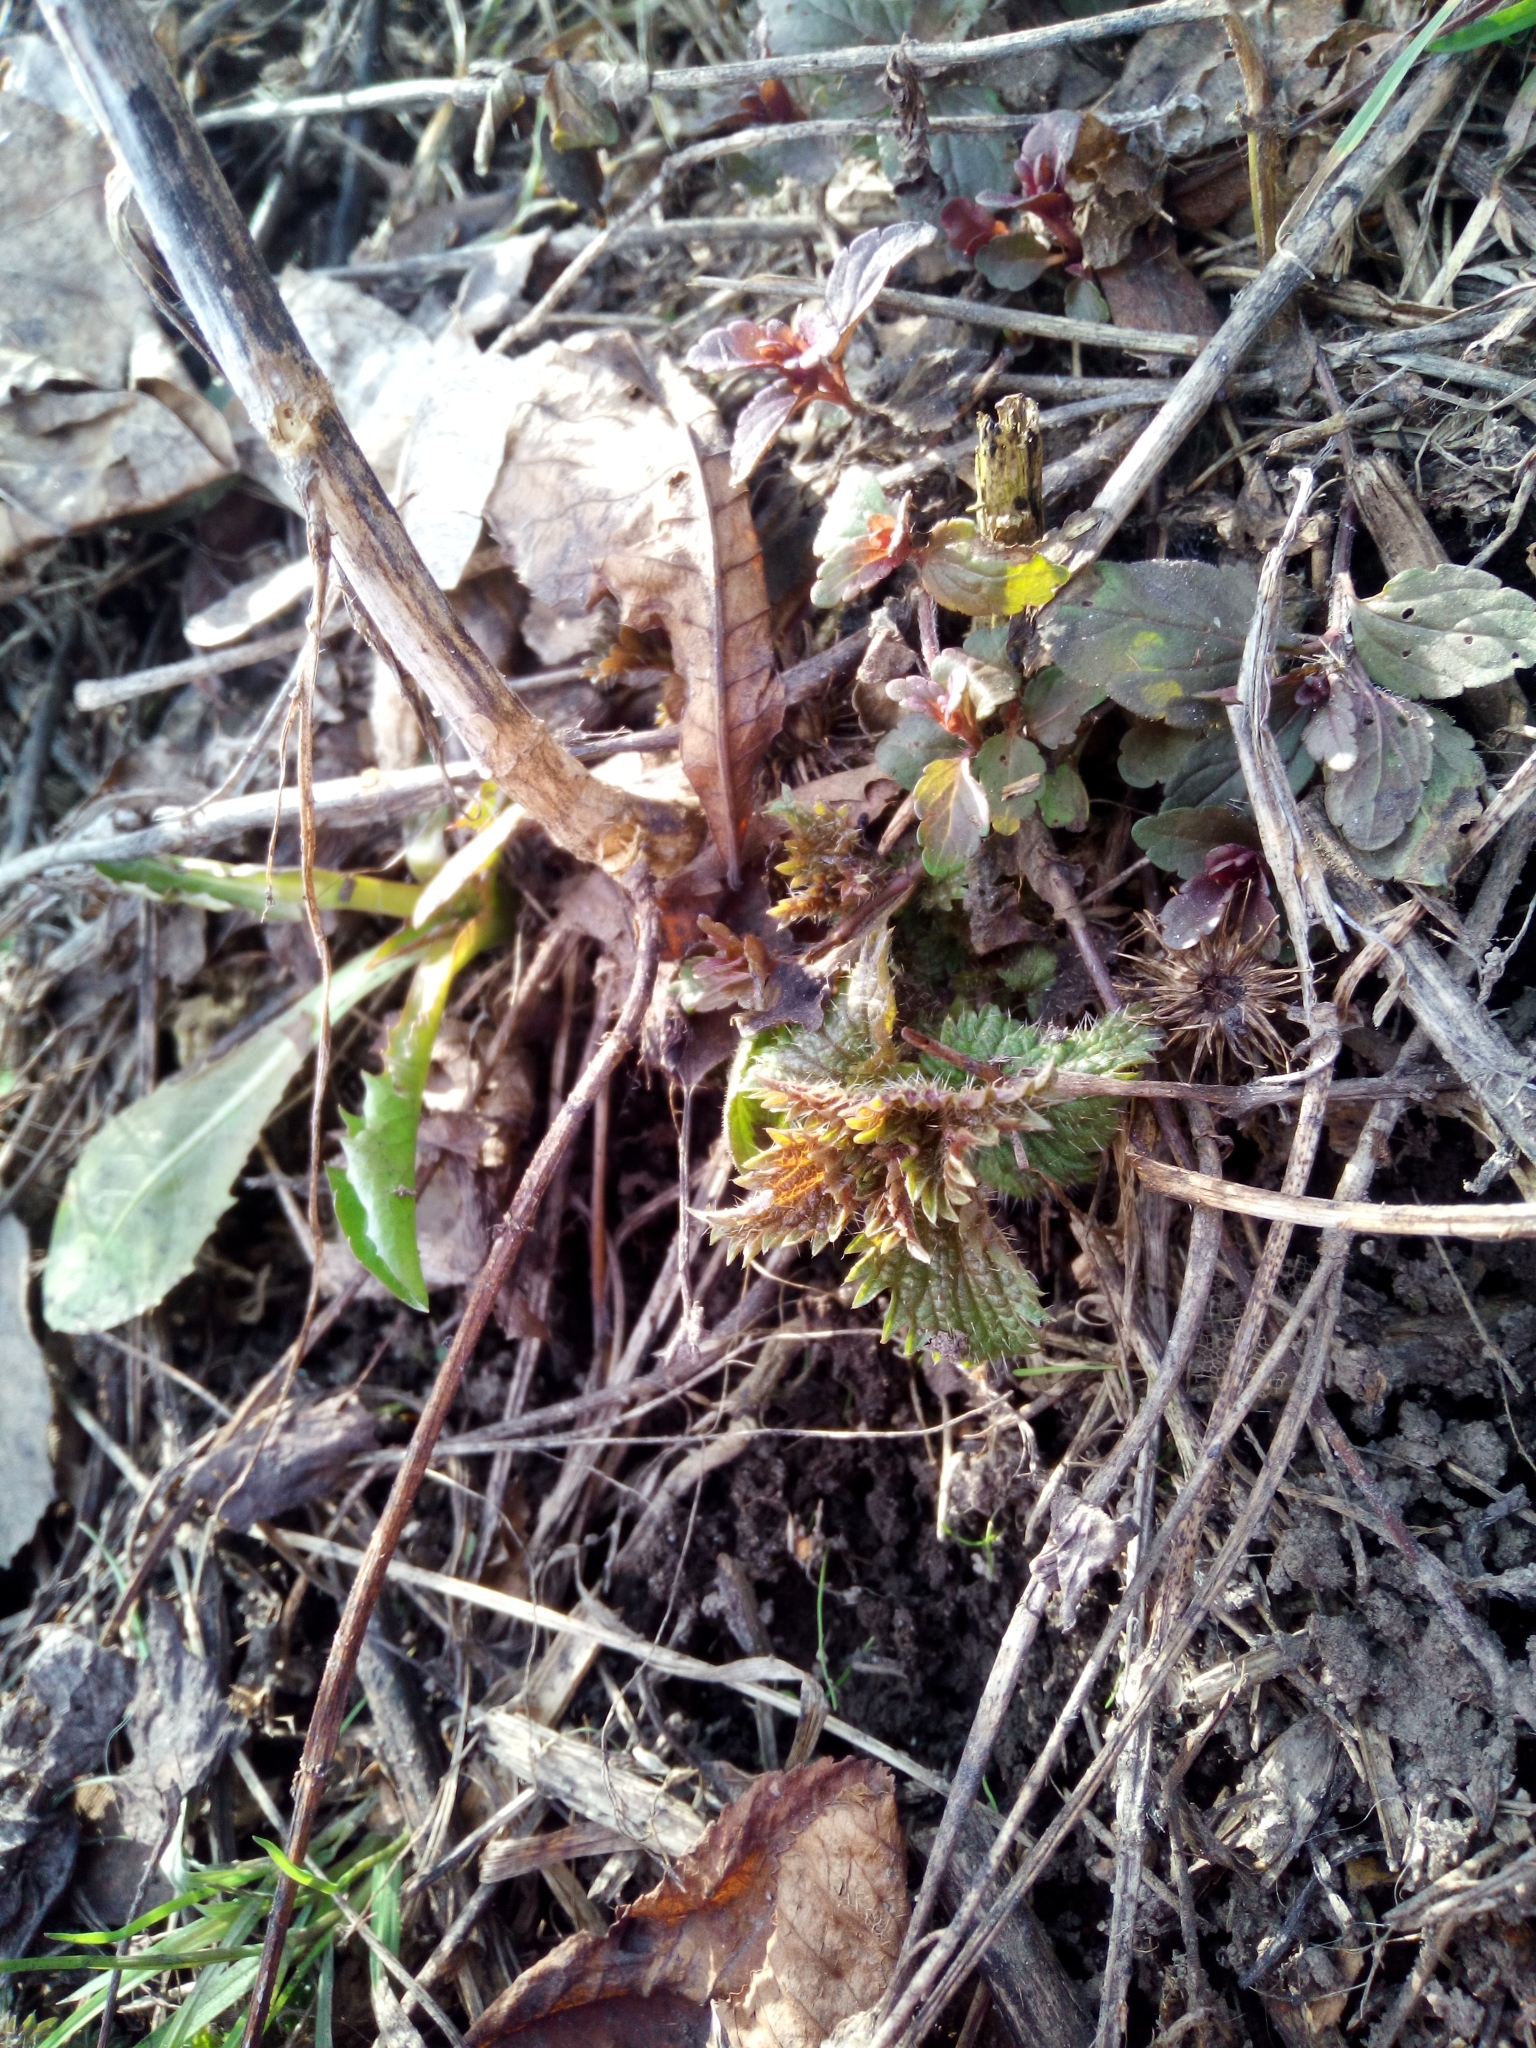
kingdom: Plantae
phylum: Tracheophyta
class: Magnoliopsida
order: Rosales
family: Urticaceae
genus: Urtica
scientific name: Urtica dioica
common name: Common nettle
